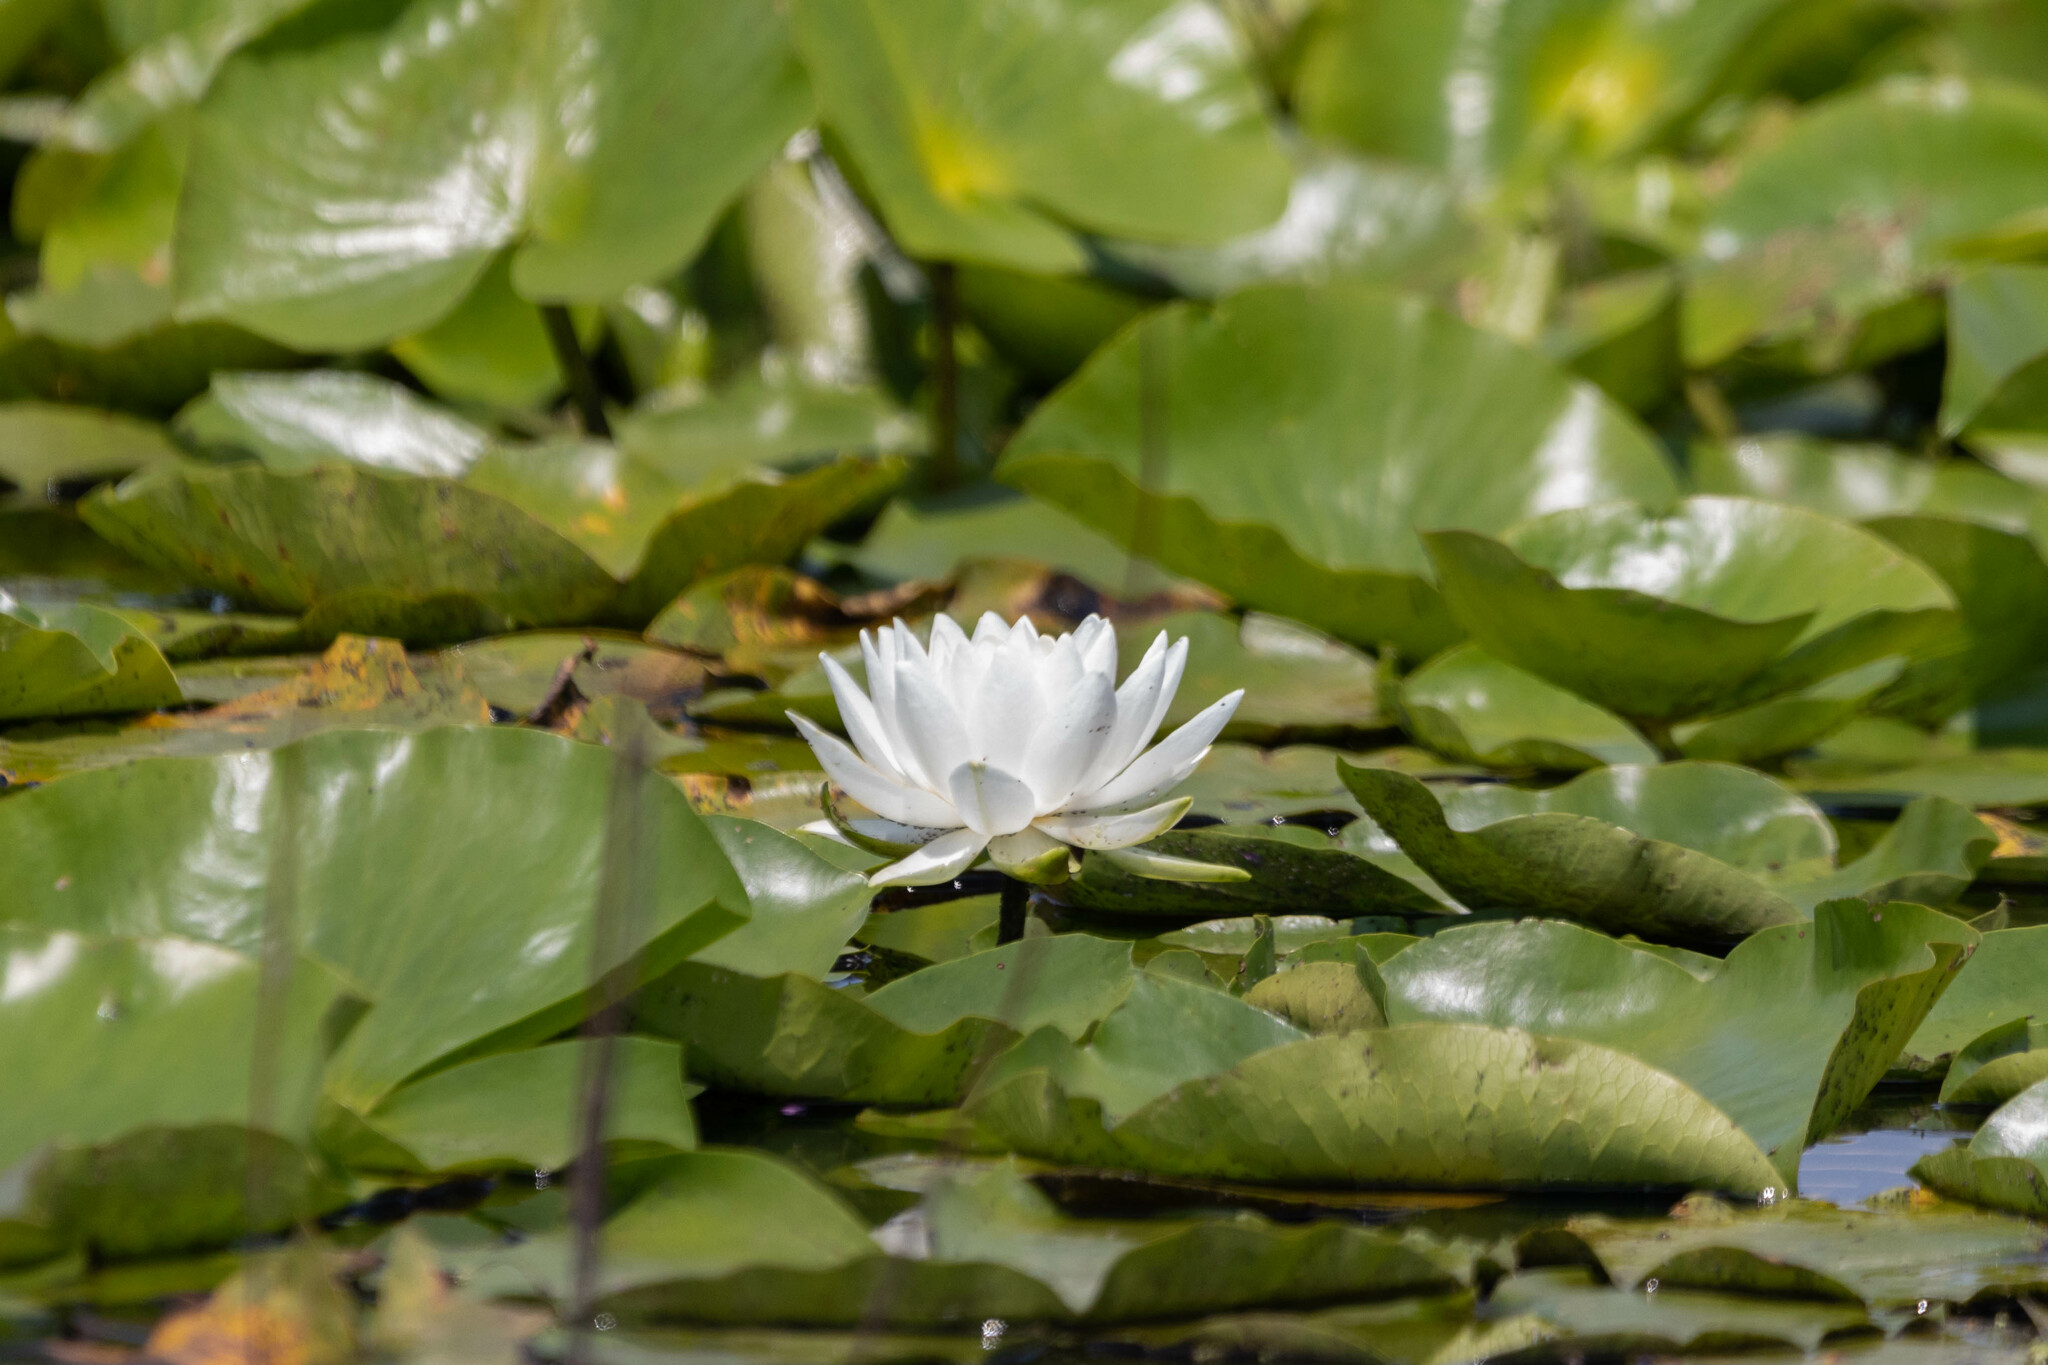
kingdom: Plantae
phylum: Tracheophyta
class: Magnoliopsida
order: Nymphaeales
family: Nymphaeaceae
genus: Nymphaea
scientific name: Nymphaea odorata
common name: Fragrant water-lily
